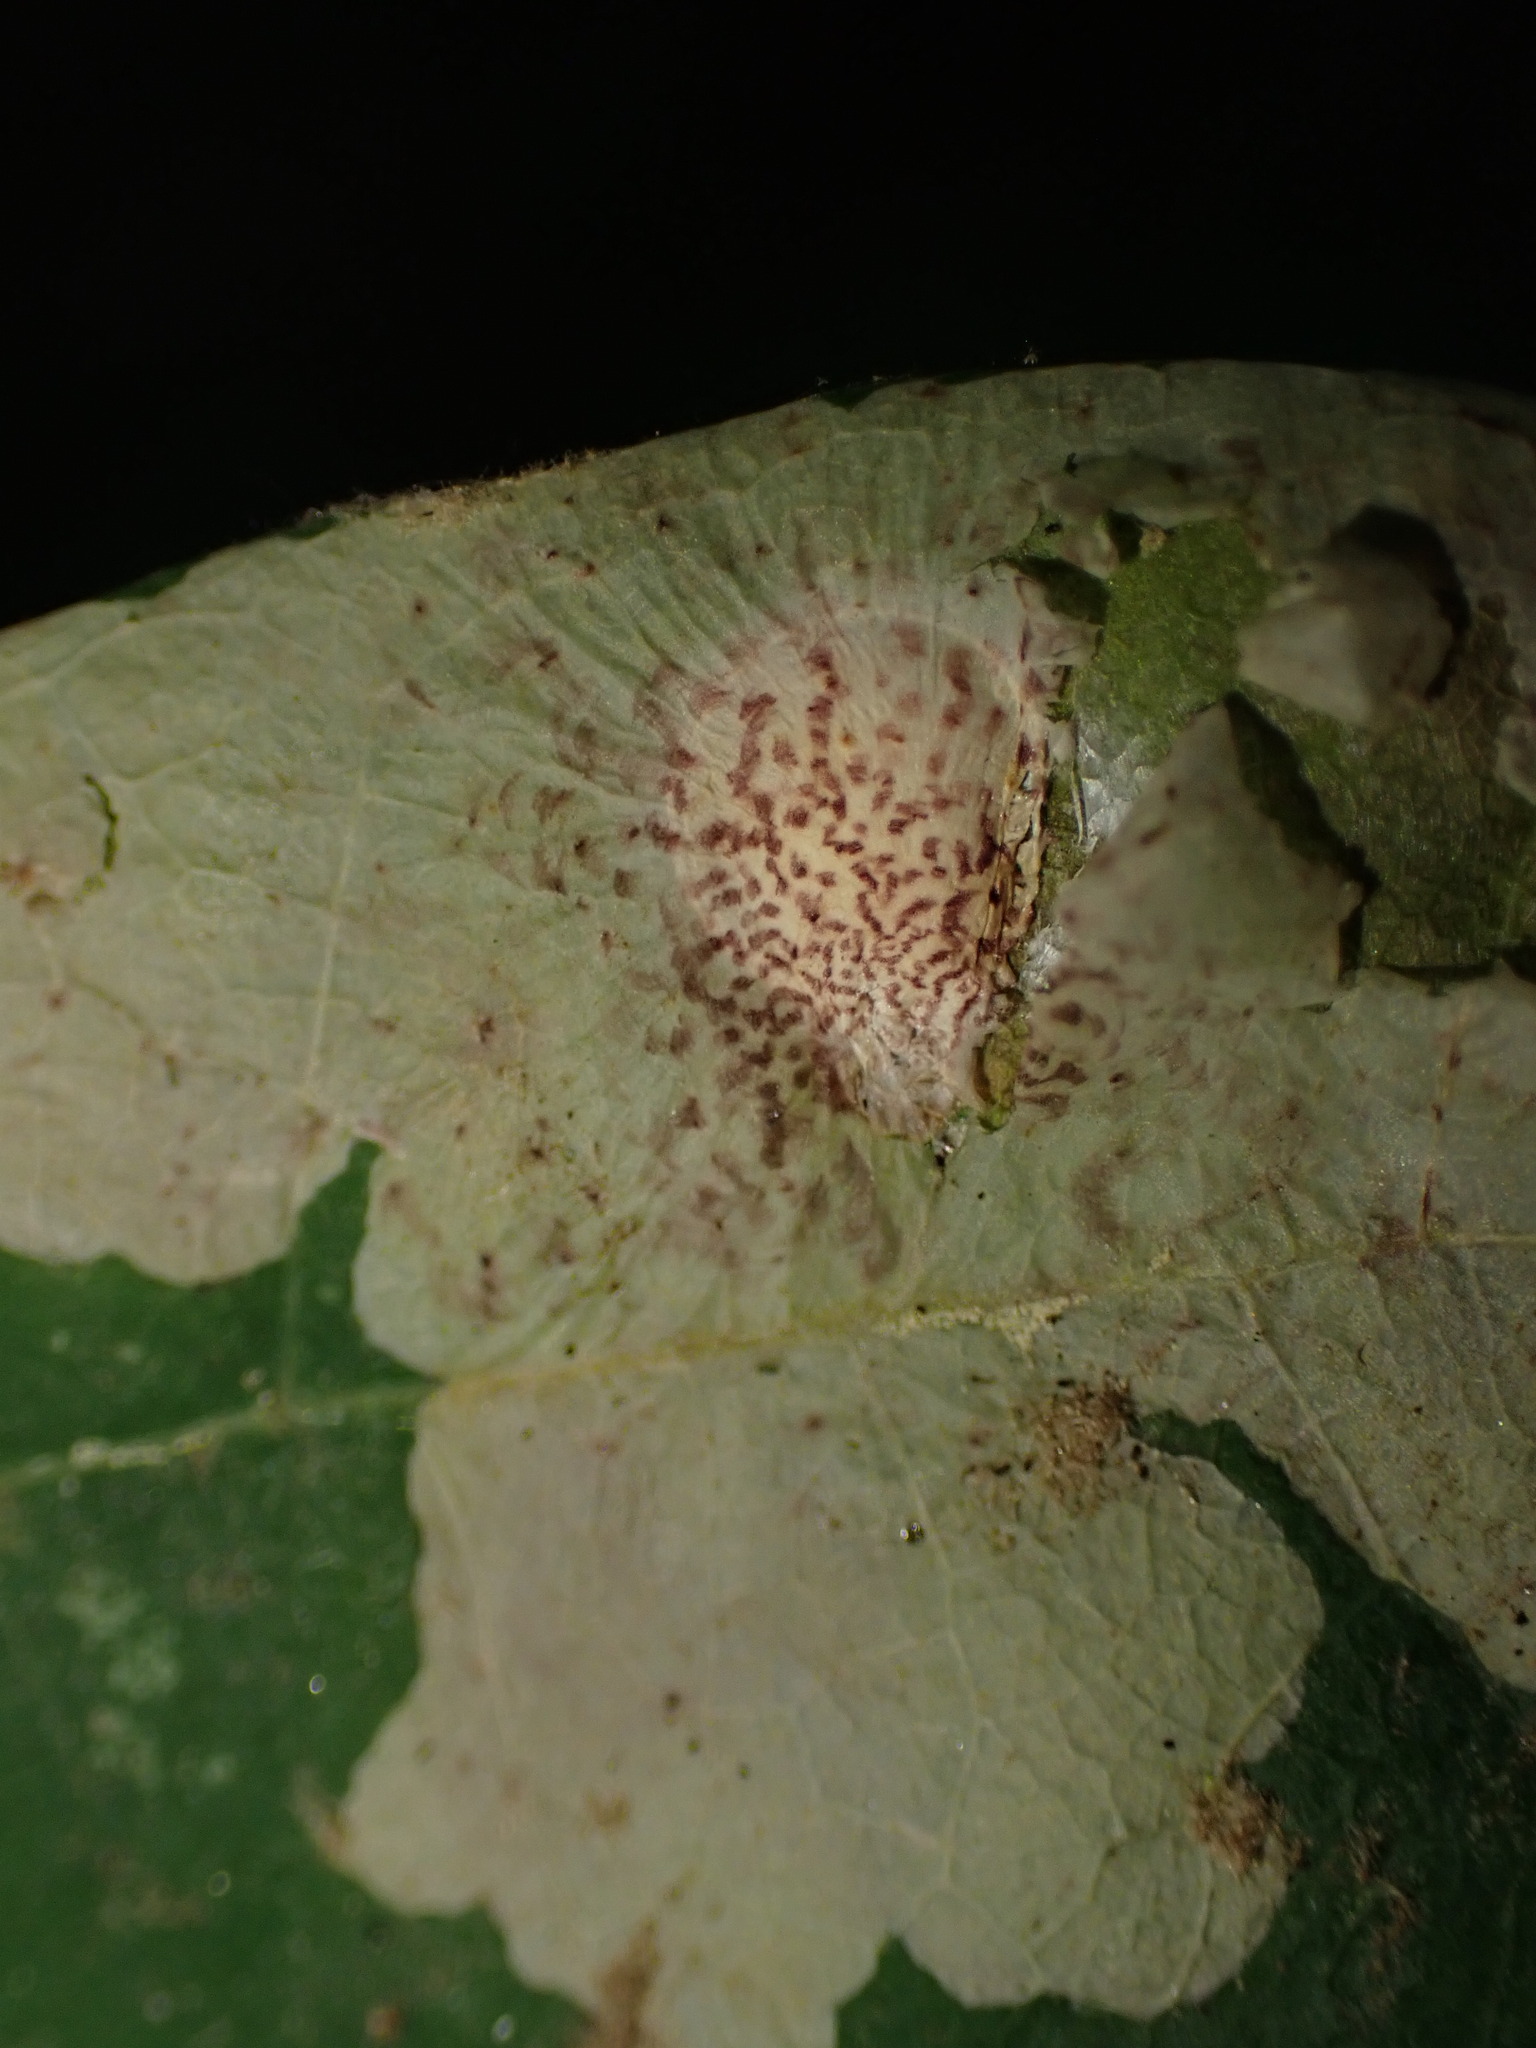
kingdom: Animalia
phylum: Arthropoda
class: Insecta
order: Lepidoptera
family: Tischeriidae
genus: Tischeria
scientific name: Tischeria quercitella
